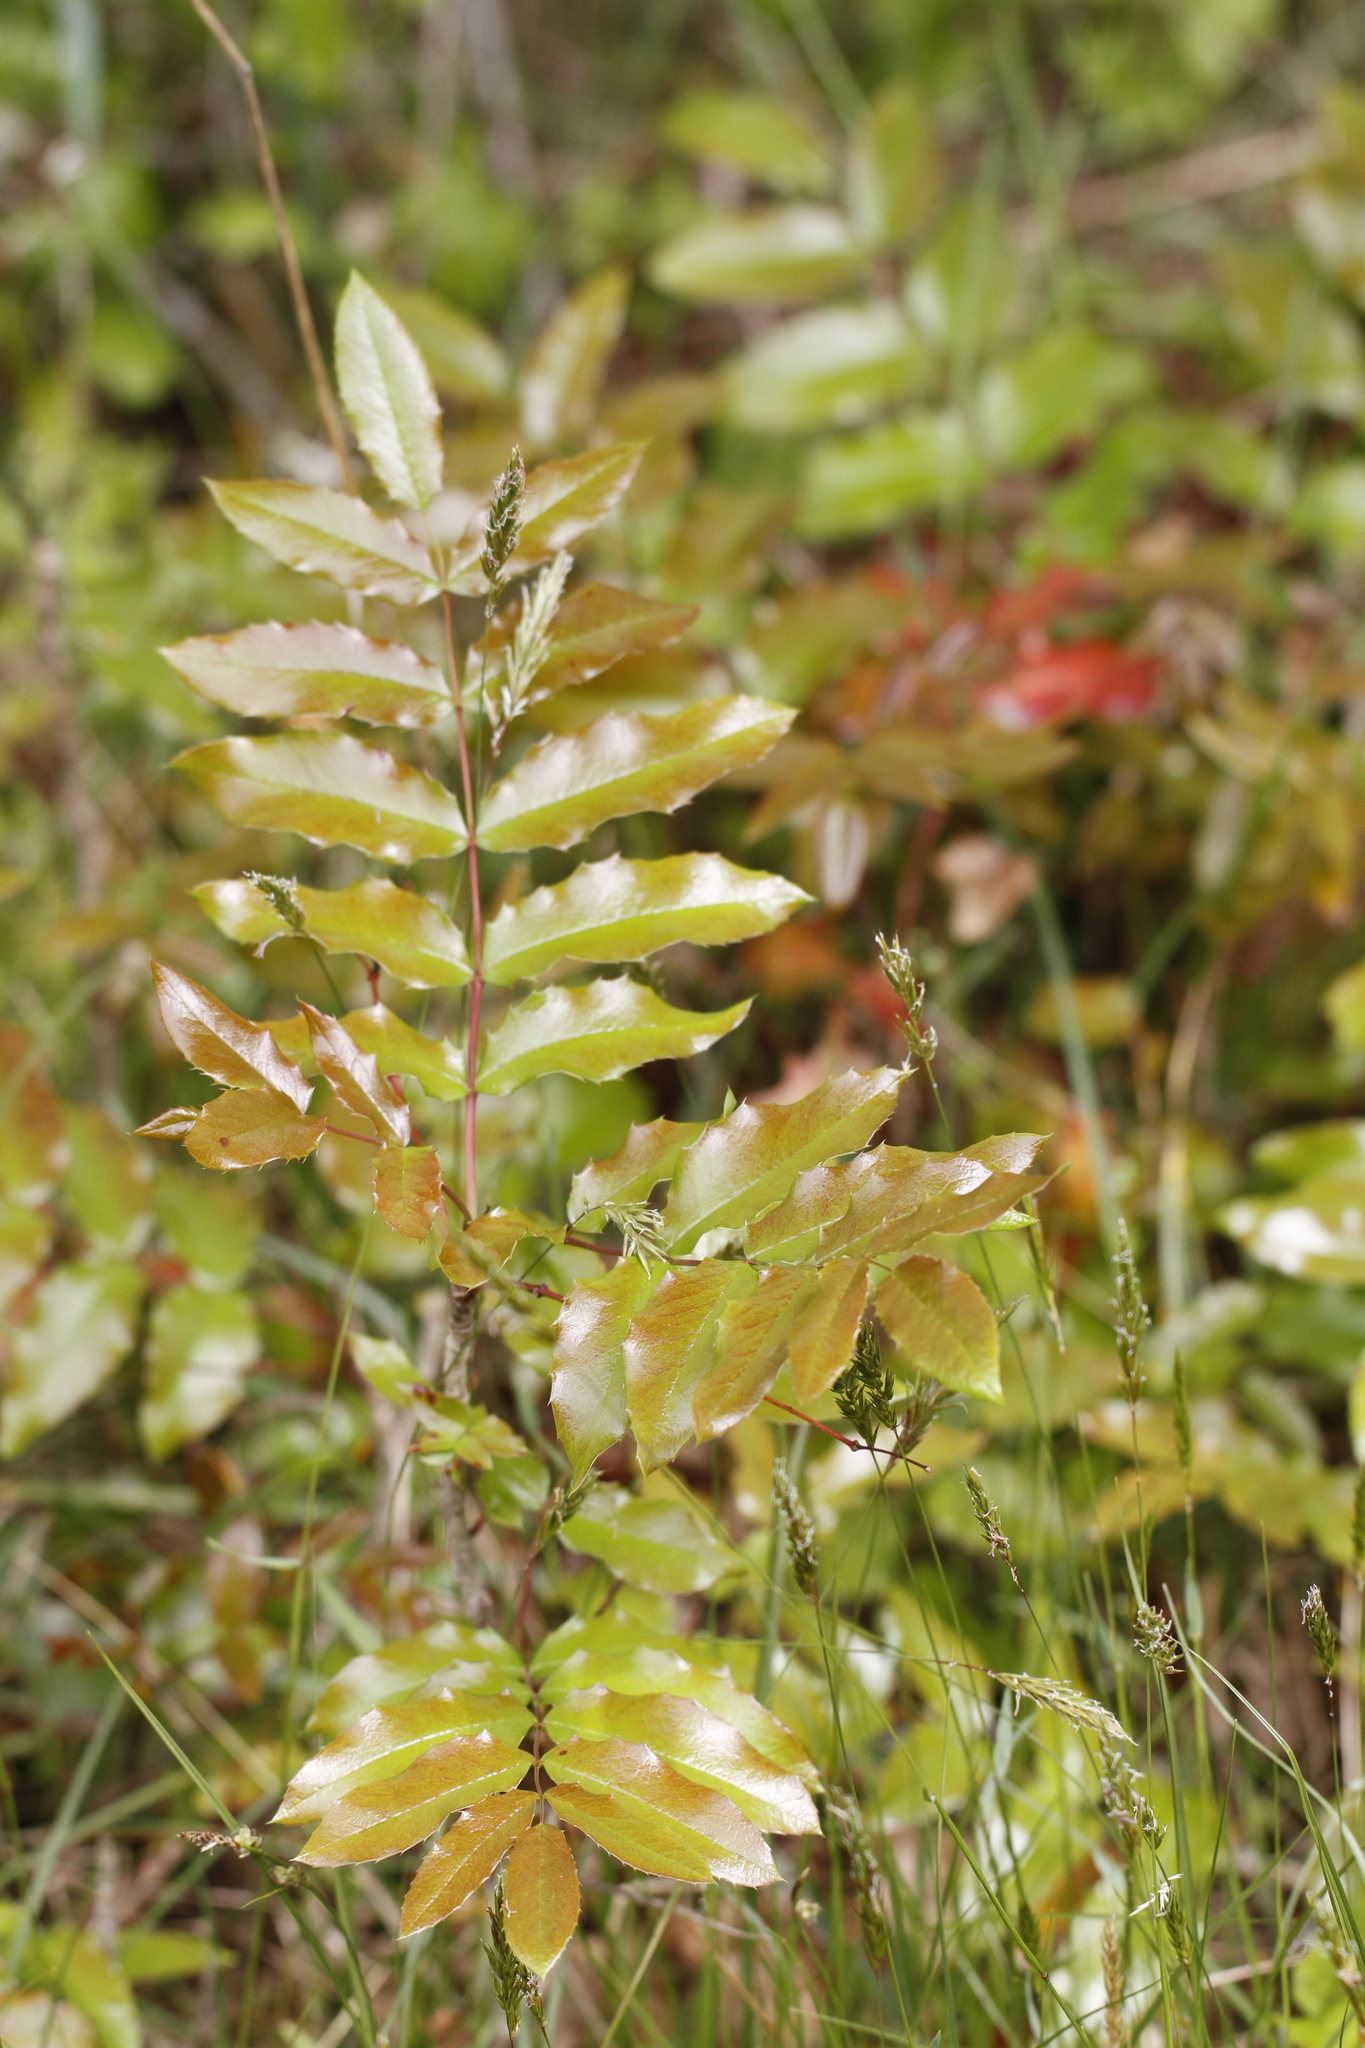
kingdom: Plantae
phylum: Tracheophyta
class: Magnoliopsida
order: Ranunculales
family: Berberidaceae
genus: Mahonia
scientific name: Mahonia aquifolium
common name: Oregon-grape
